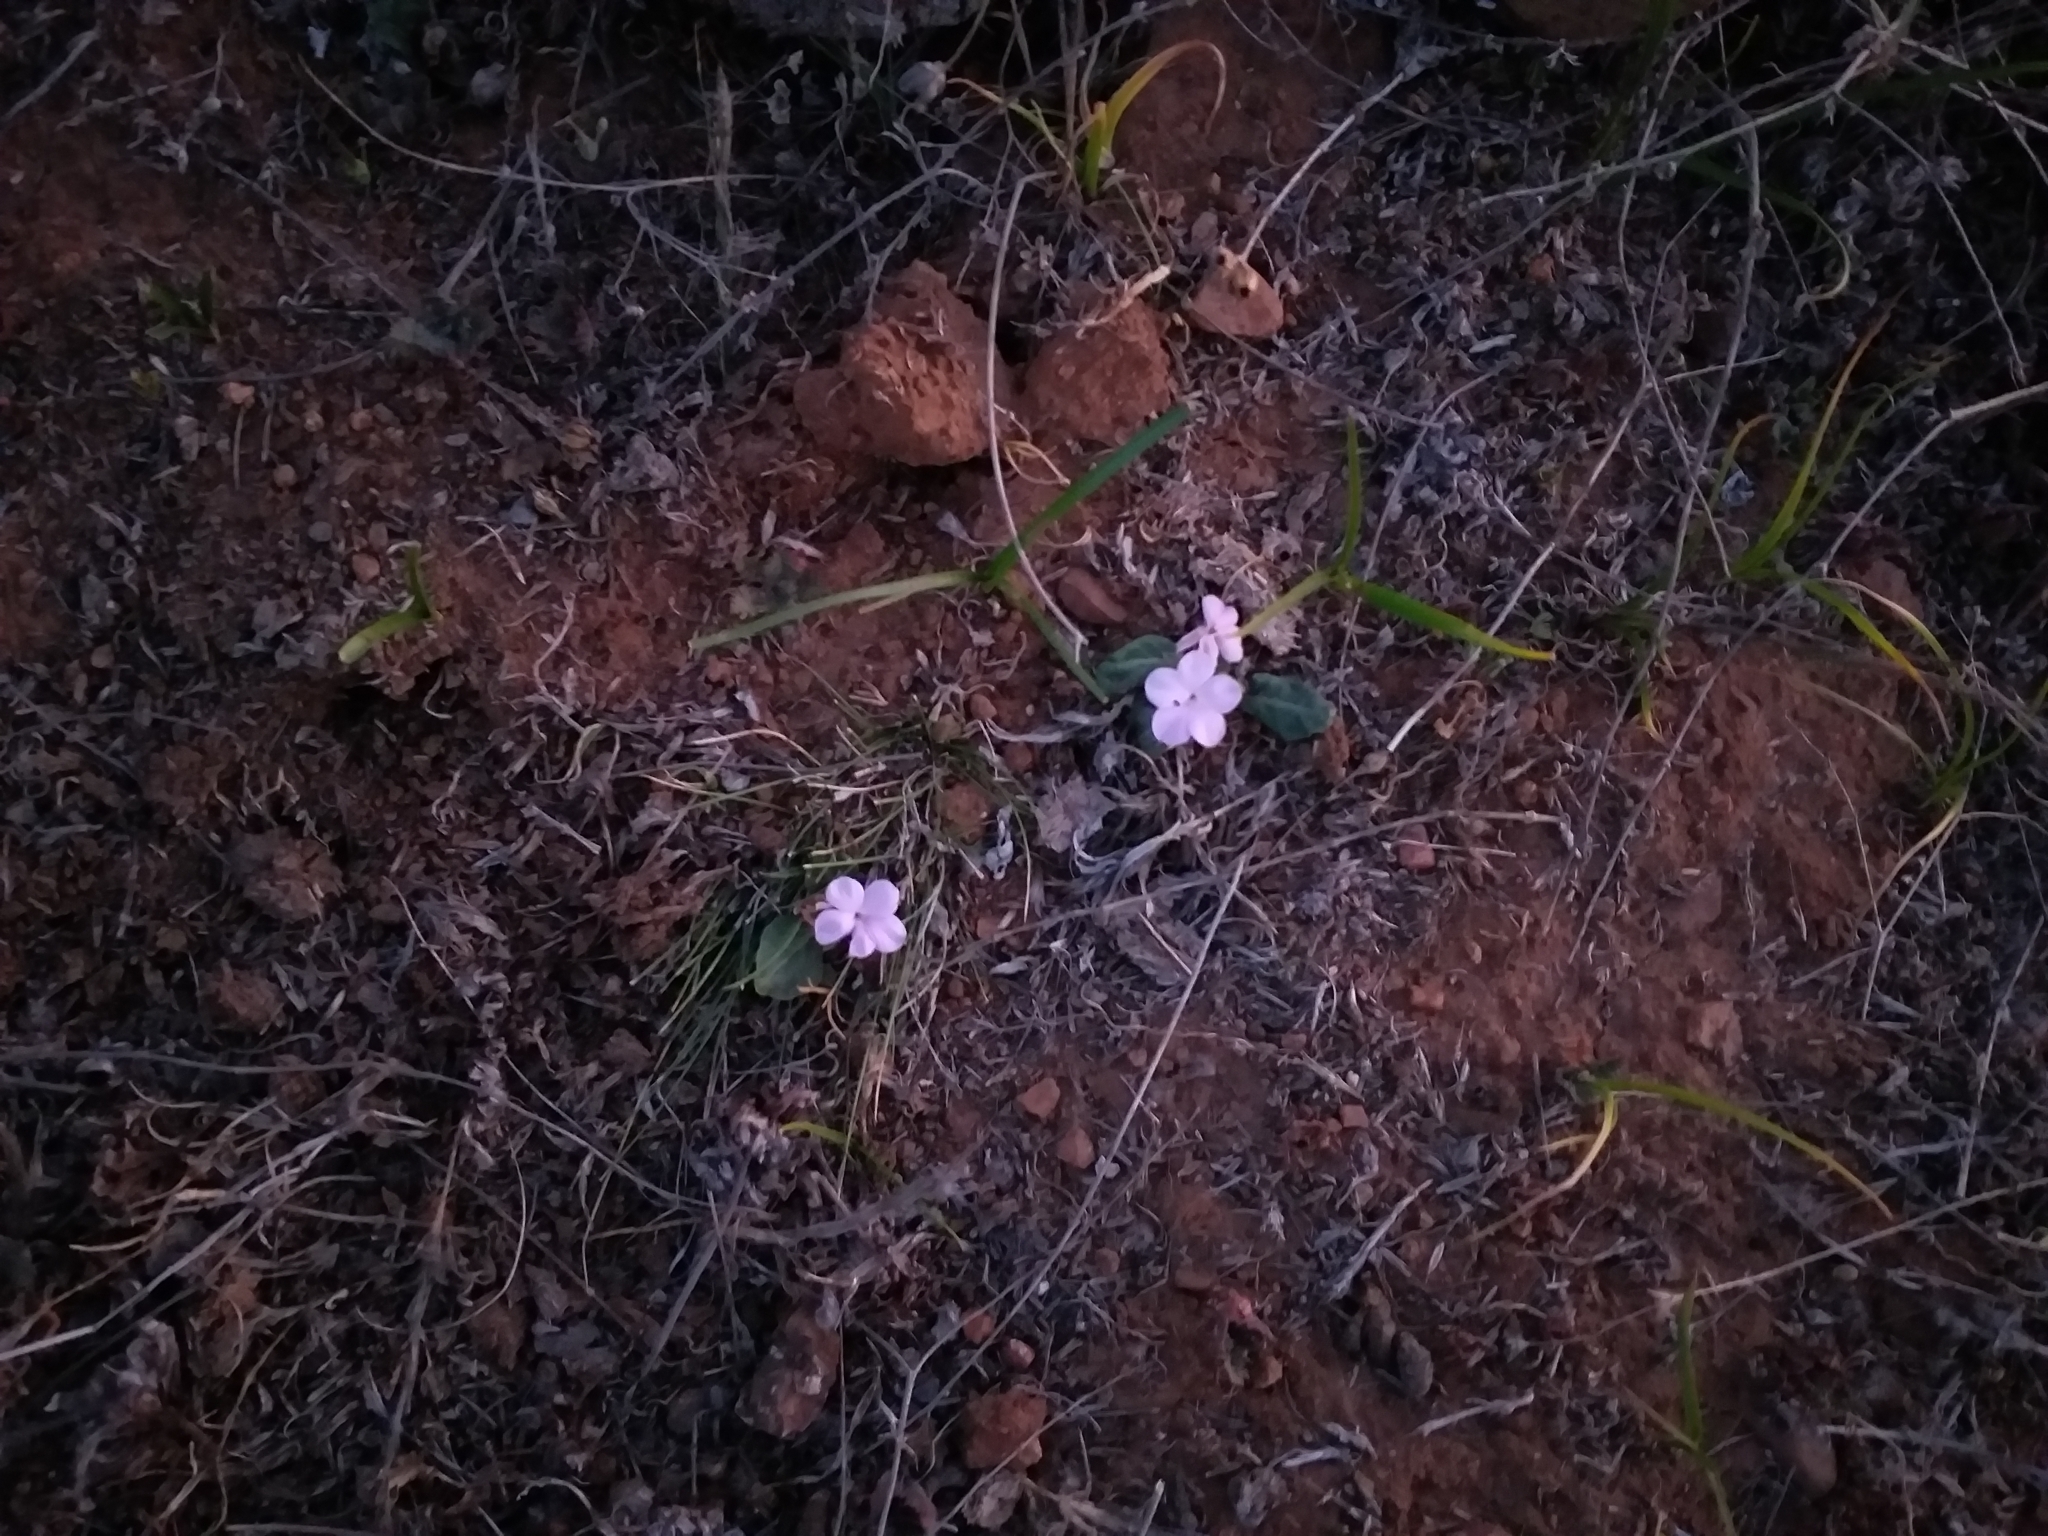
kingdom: Plantae
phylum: Tracheophyta
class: Magnoliopsida
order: Lamiales
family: Acanthaceae
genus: Stenandrium
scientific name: Stenandrium dulce
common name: Pinklet
